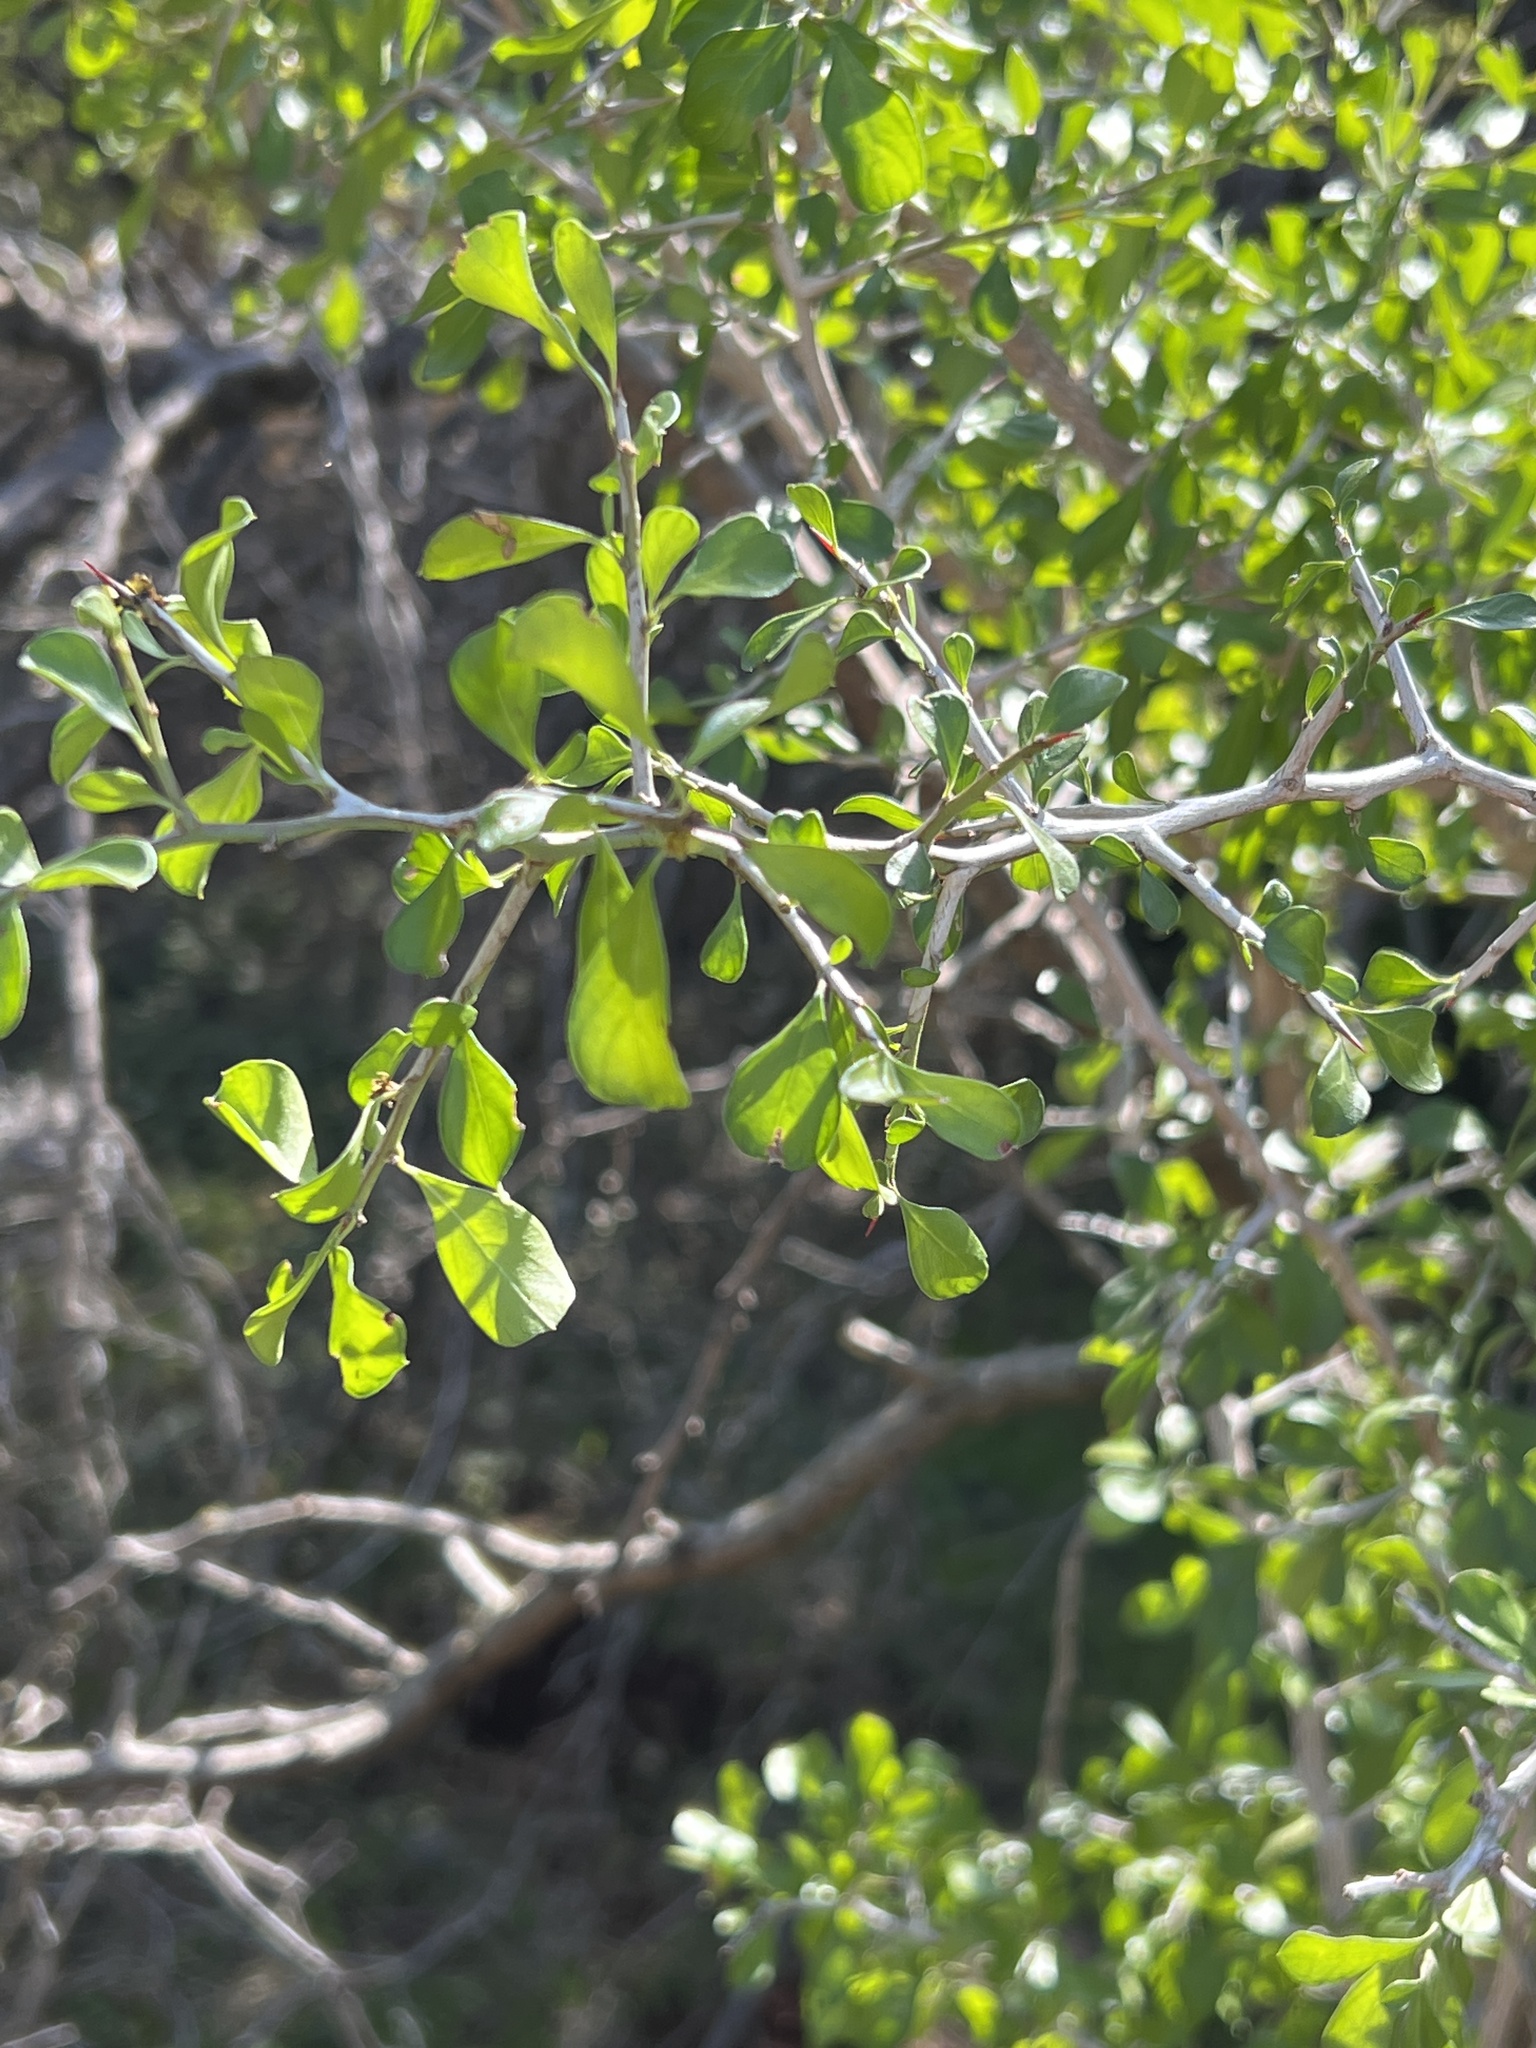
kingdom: Plantae
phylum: Tracheophyta
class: Magnoliopsida
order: Rosales
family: Rhamnaceae
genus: Condalia
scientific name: Condalia hookeri
